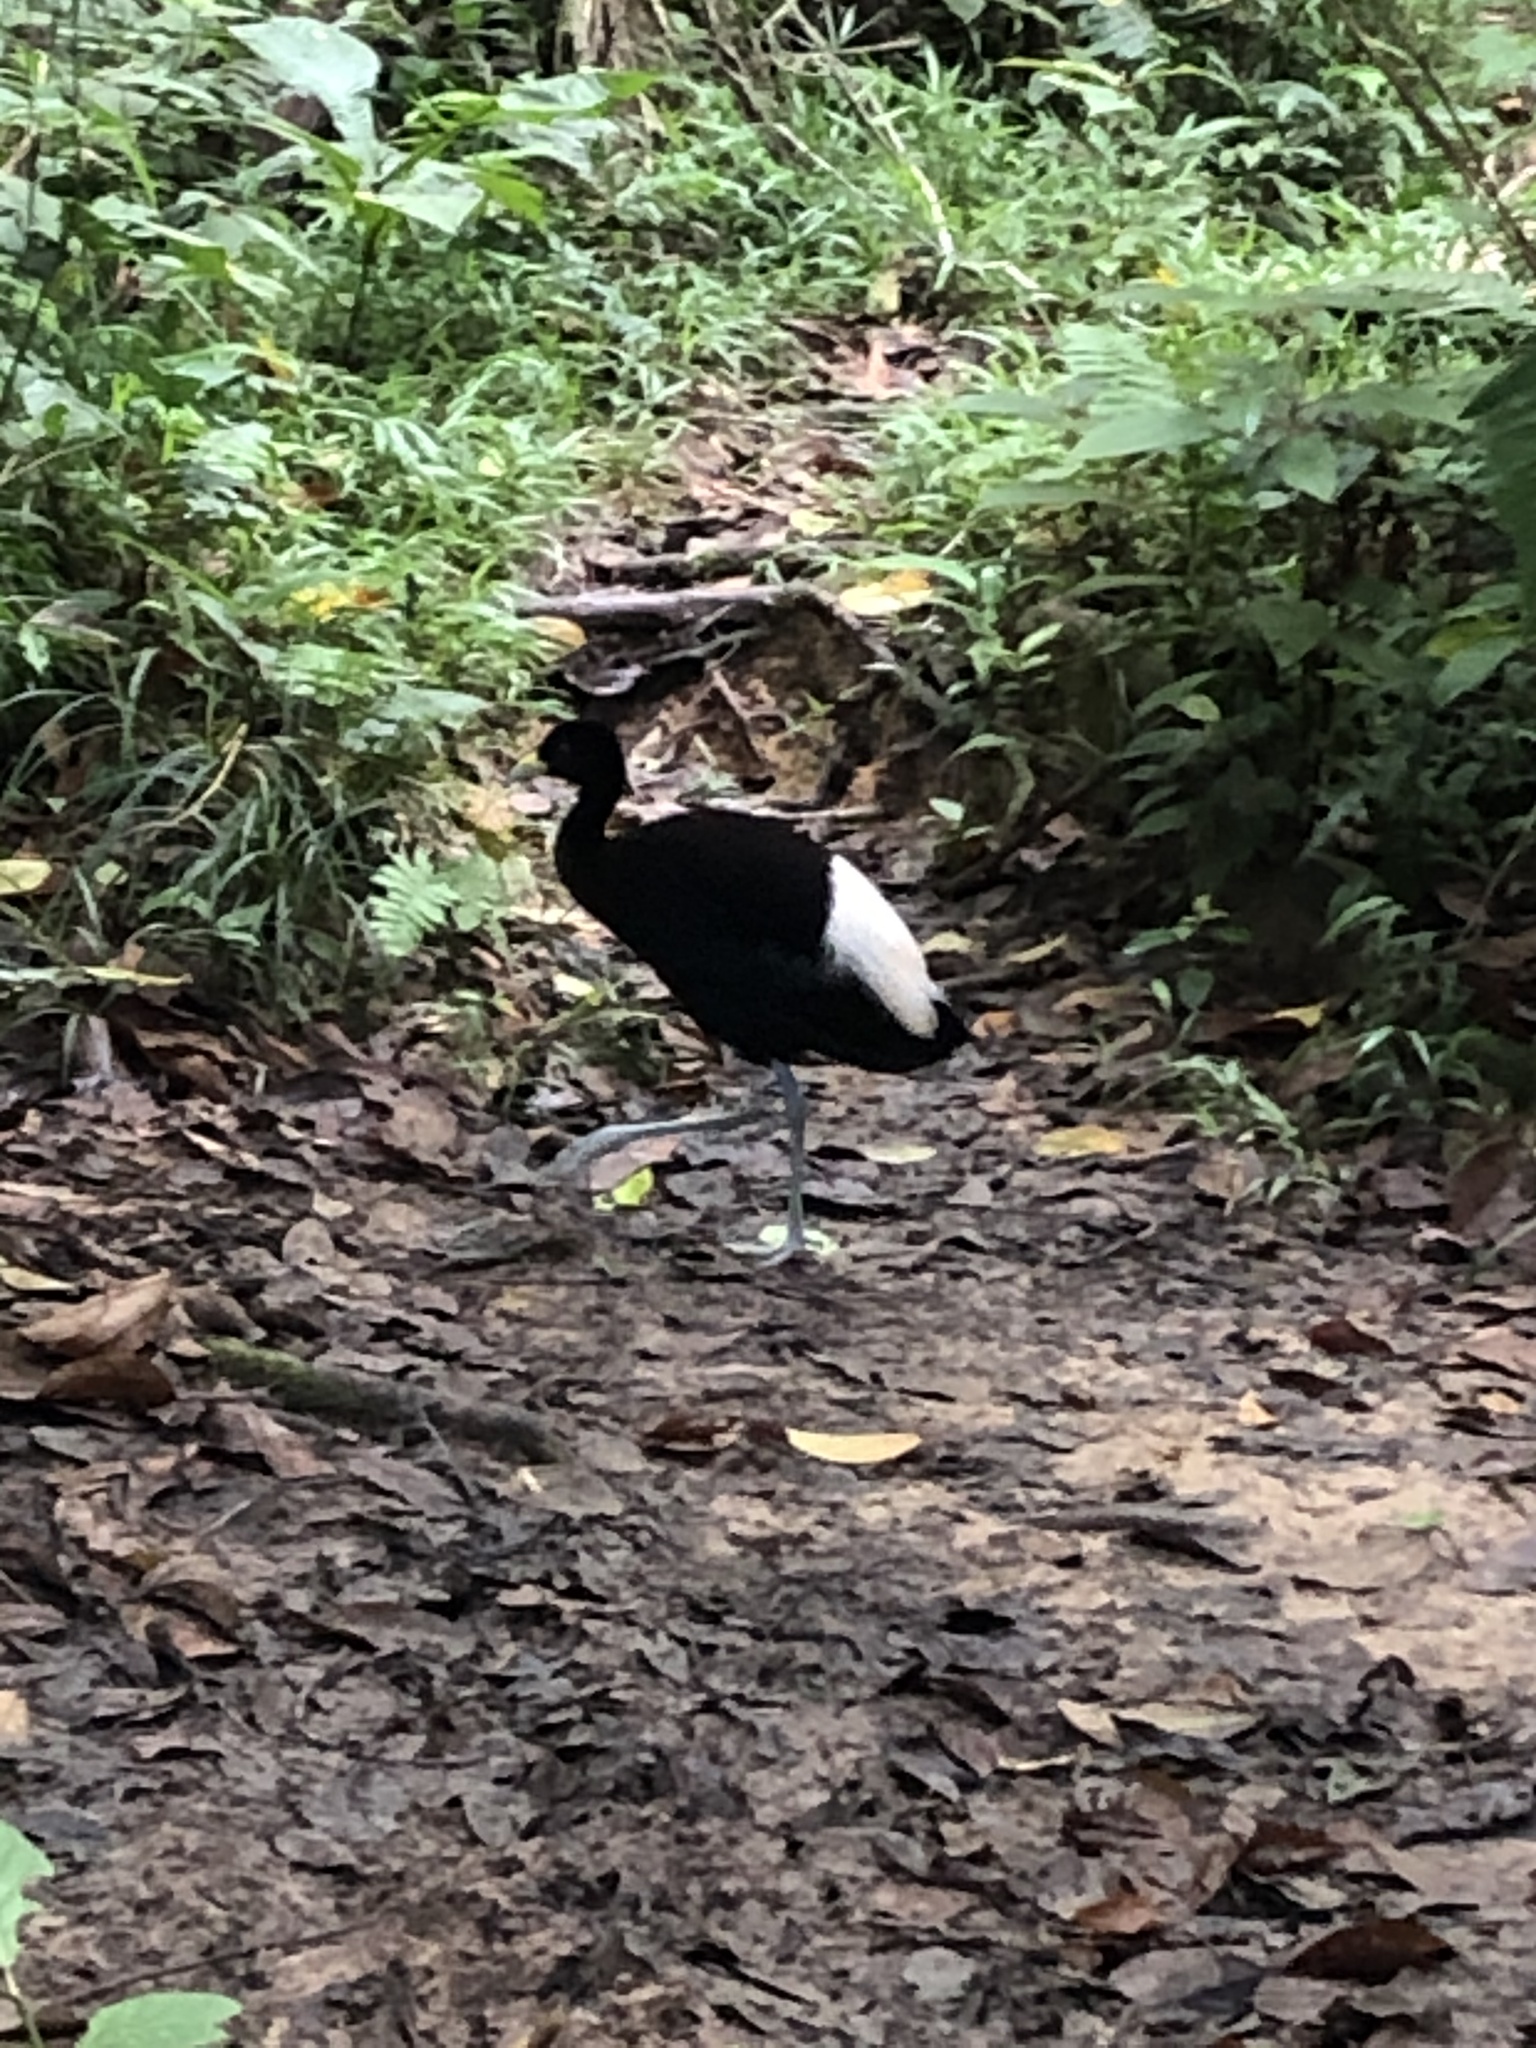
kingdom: Animalia
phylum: Chordata
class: Aves
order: Gruiformes
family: Psophiidae
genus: Psophia
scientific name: Psophia leucoptera
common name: Pale-winged trumpeter
